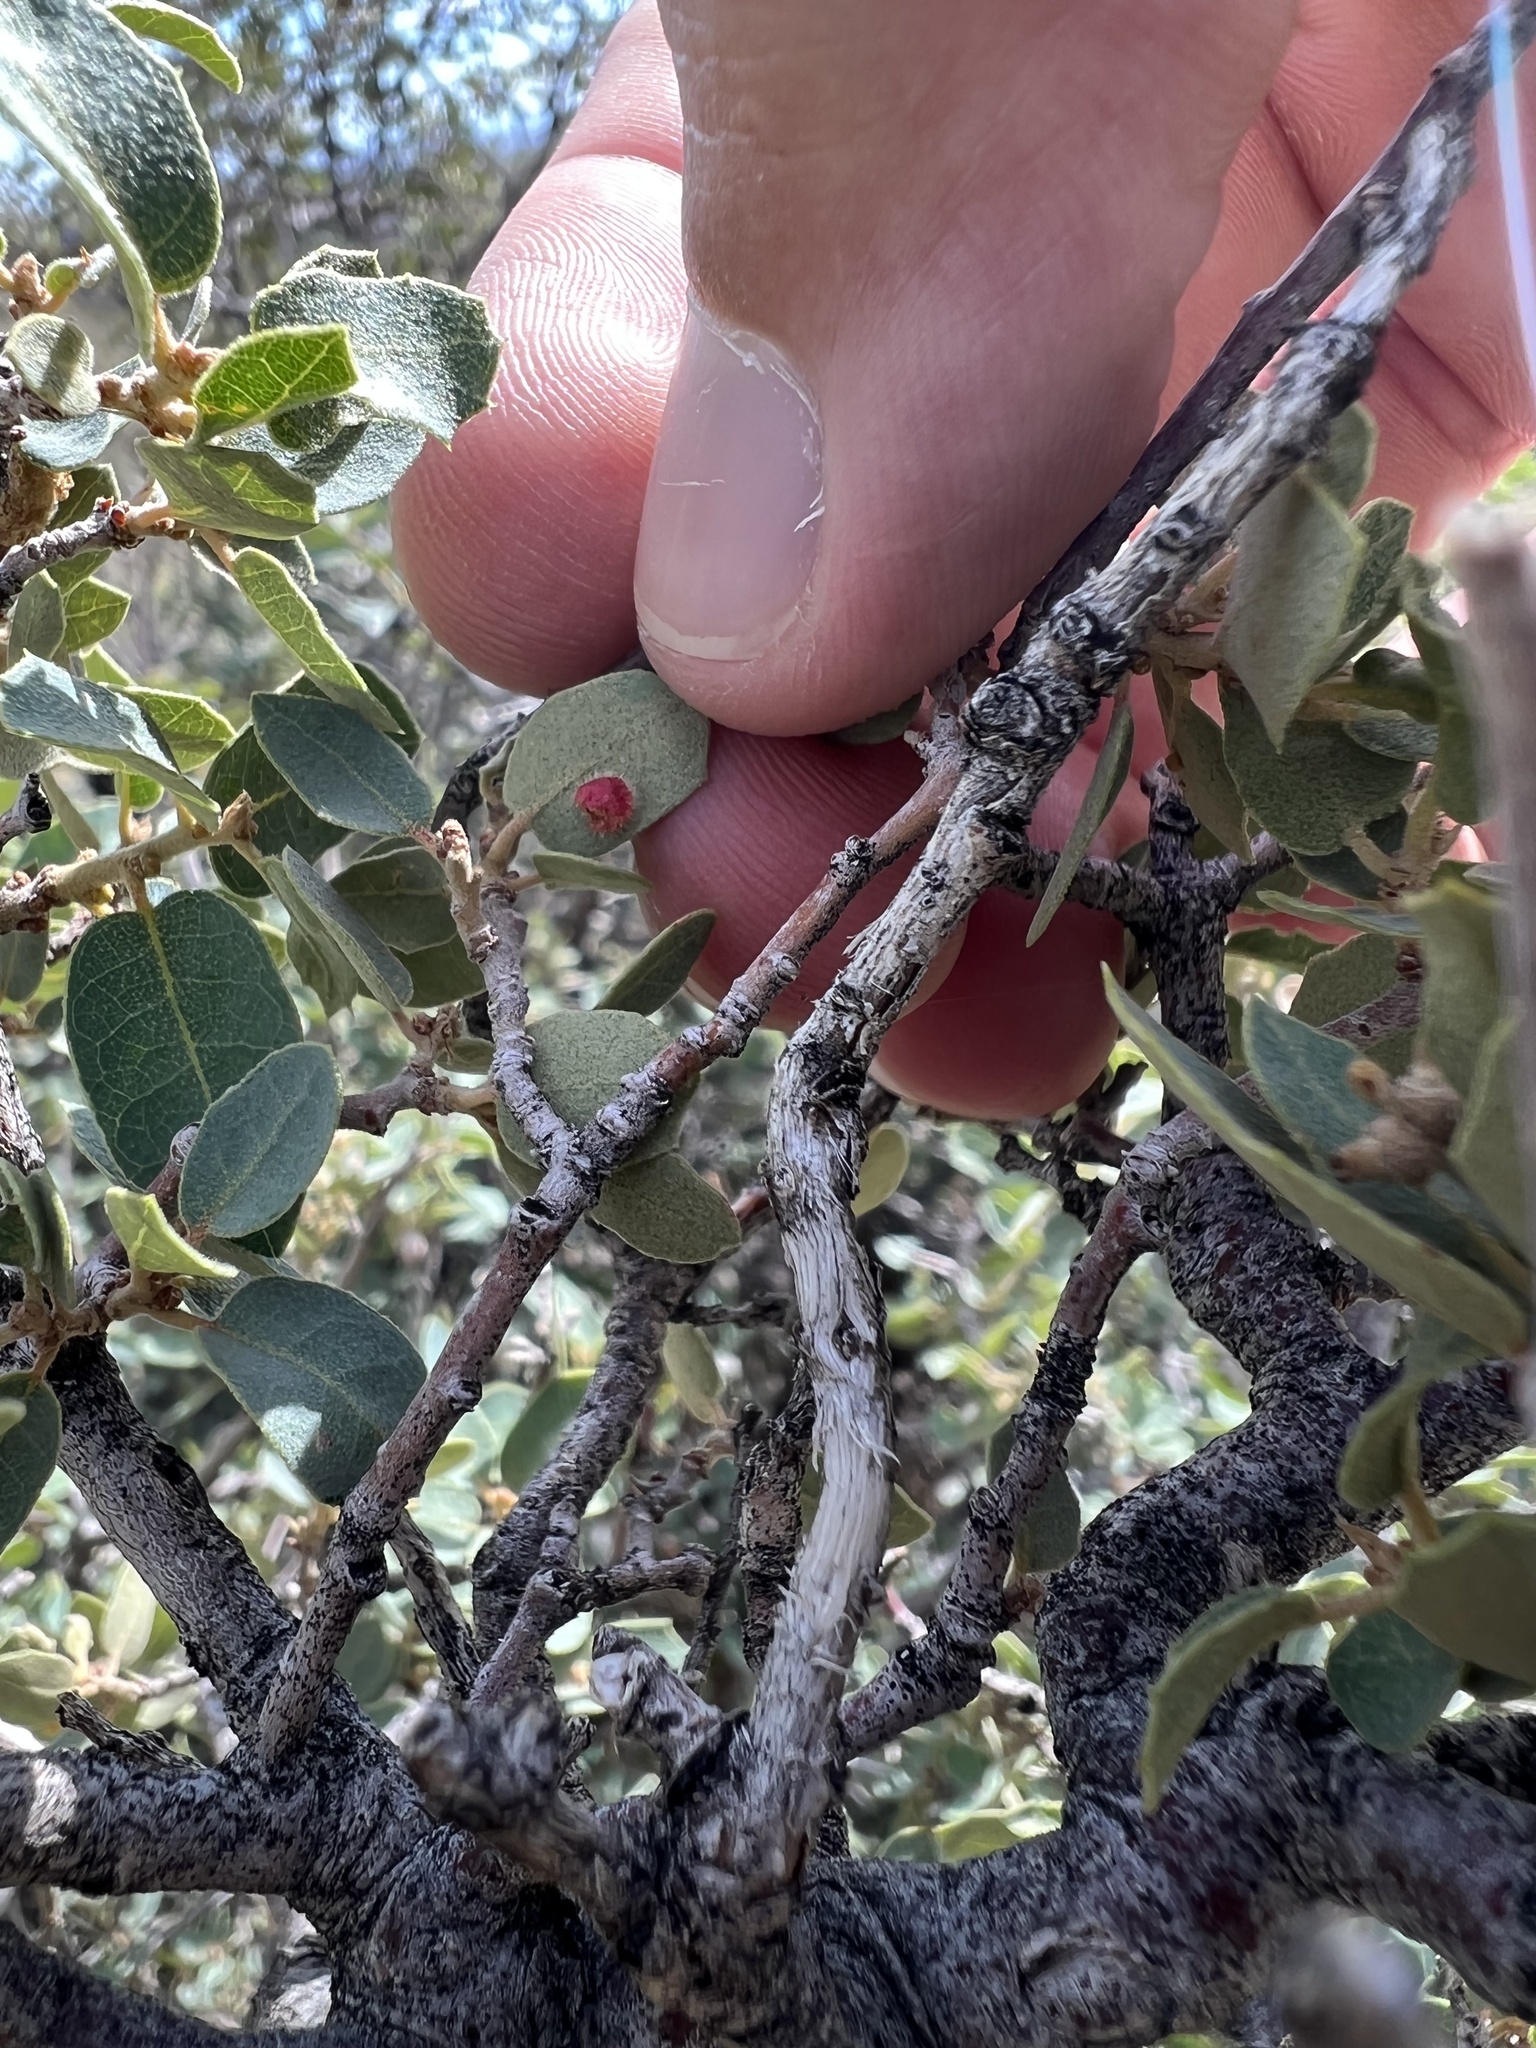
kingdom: Animalia
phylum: Arthropoda
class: Insecta
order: Hymenoptera
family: Cynipidae
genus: Andricus
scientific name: Andricus
